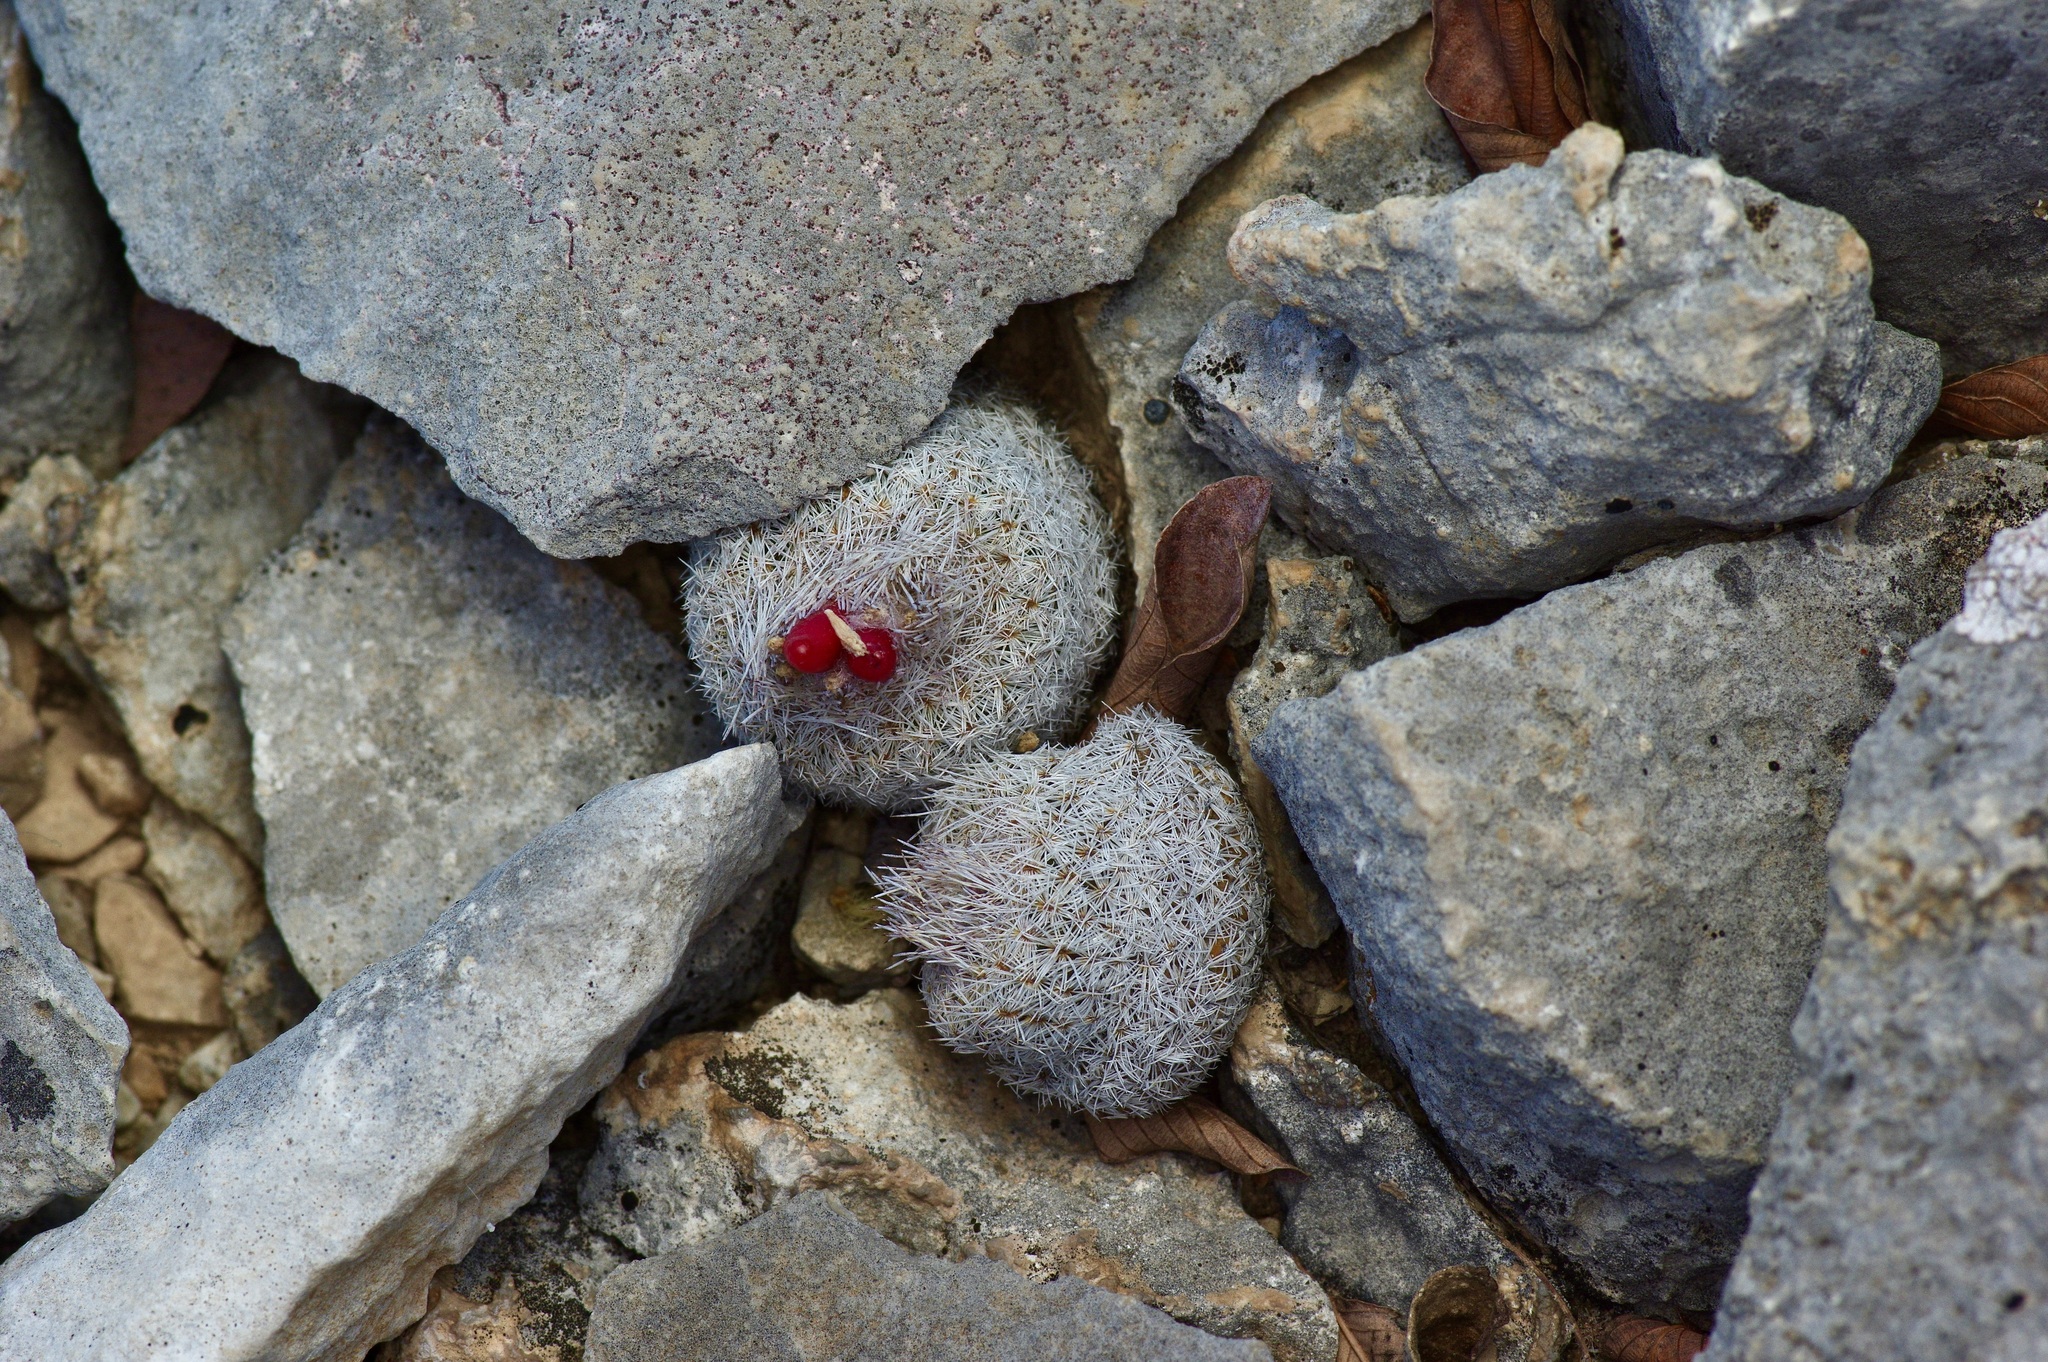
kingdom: Plantae
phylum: Tracheophyta
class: Magnoliopsida
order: Caryophyllales
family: Cactaceae
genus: Epithelantha
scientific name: Epithelantha micromeris
